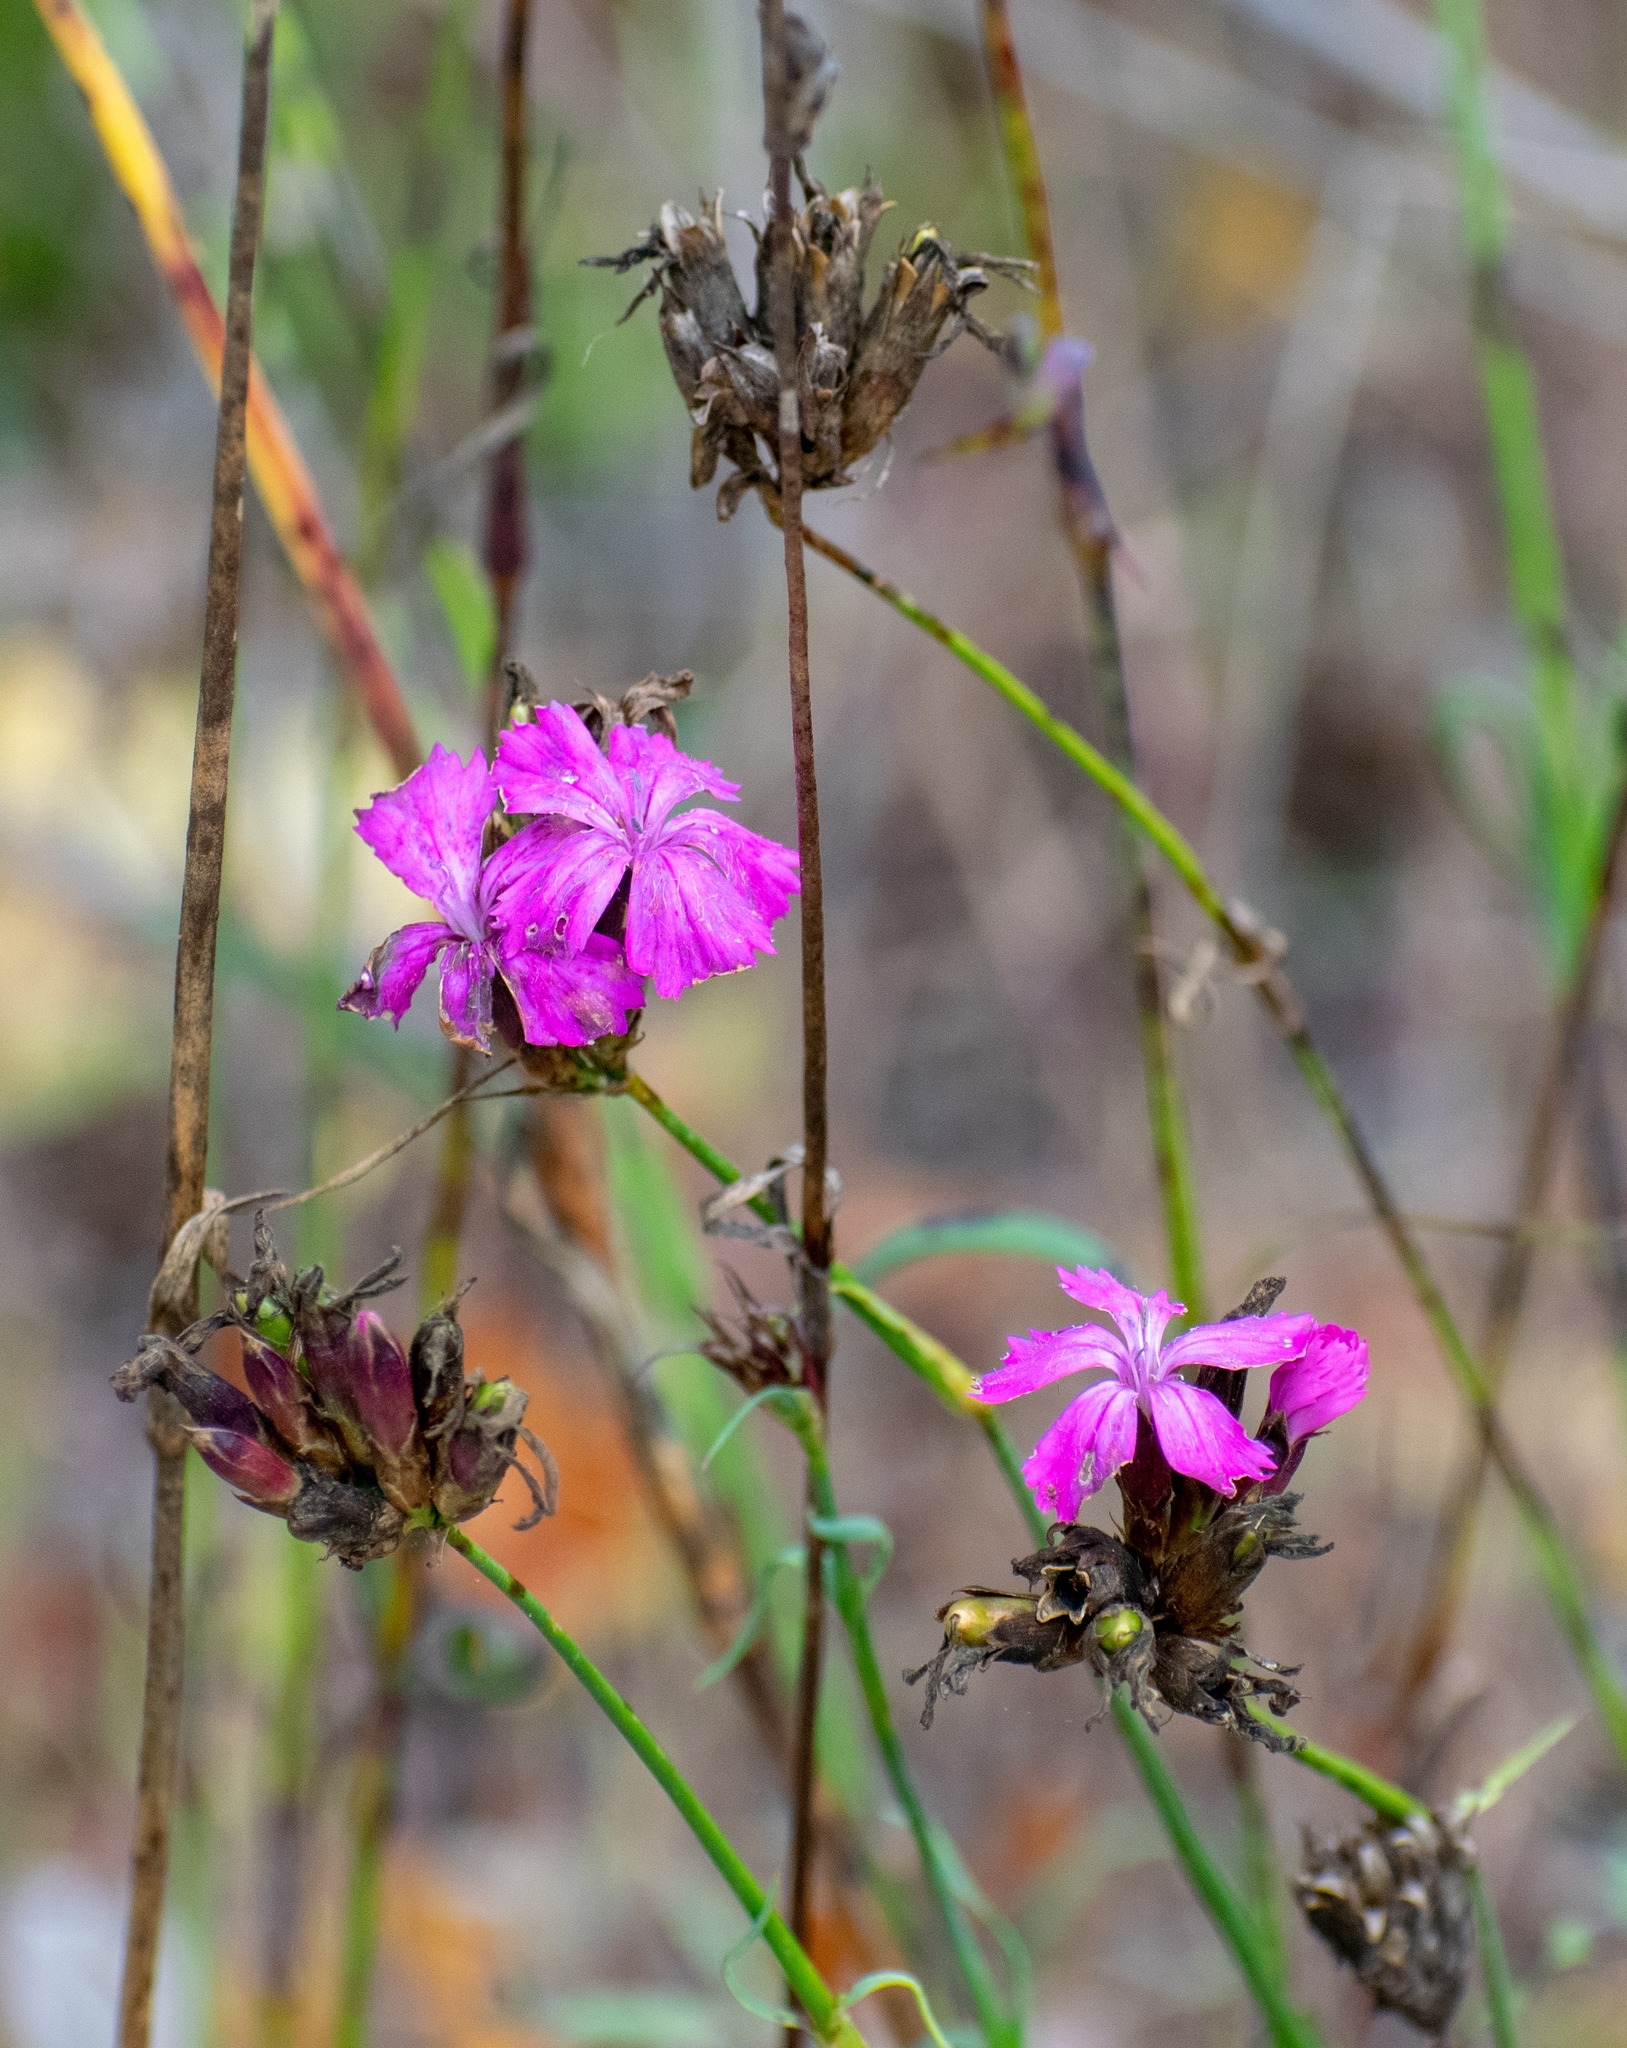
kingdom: Plantae
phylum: Tracheophyta
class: Magnoliopsida
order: Caryophyllales
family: Caryophyllaceae
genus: Dianthus
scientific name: Dianthus carthusianorum
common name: Carthusian pink
